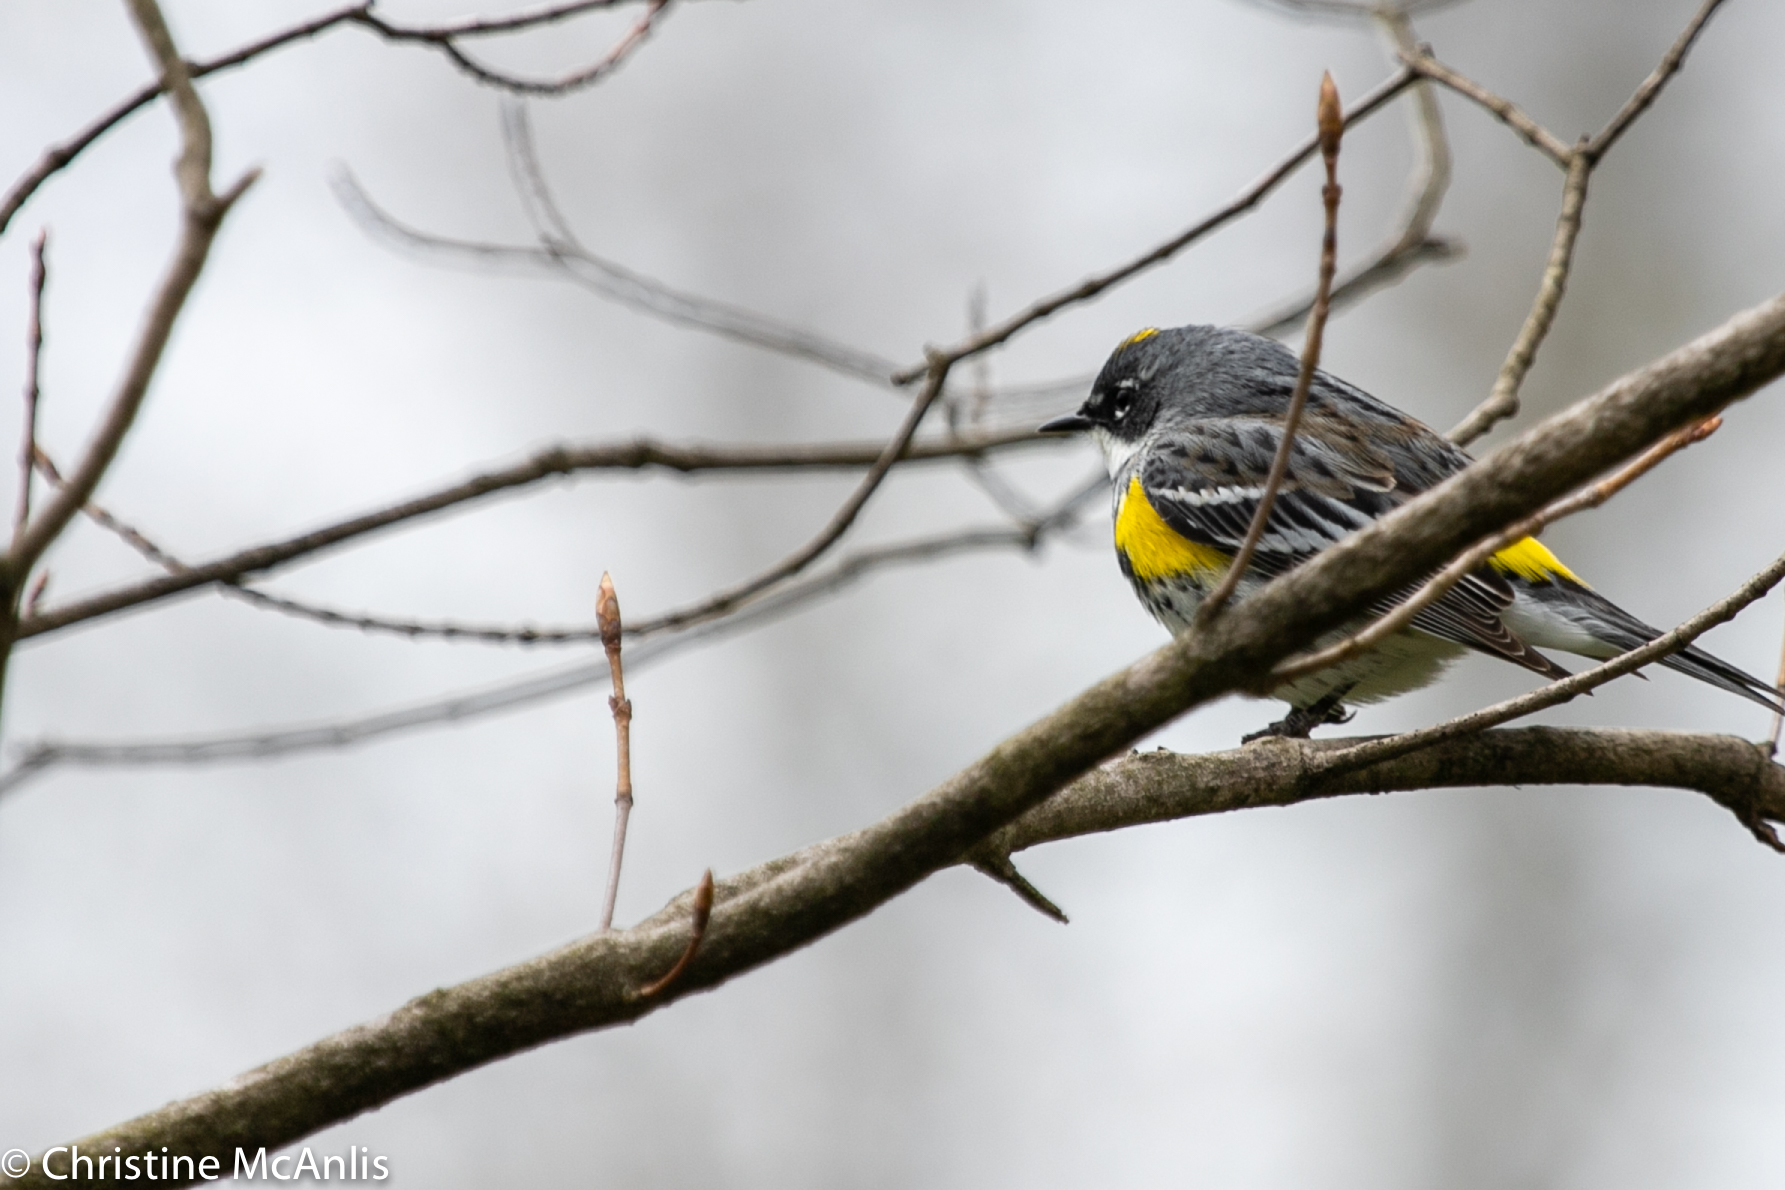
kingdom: Animalia
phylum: Chordata
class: Aves
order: Passeriformes
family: Parulidae
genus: Setophaga
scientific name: Setophaga coronata
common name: Myrtle warbler
